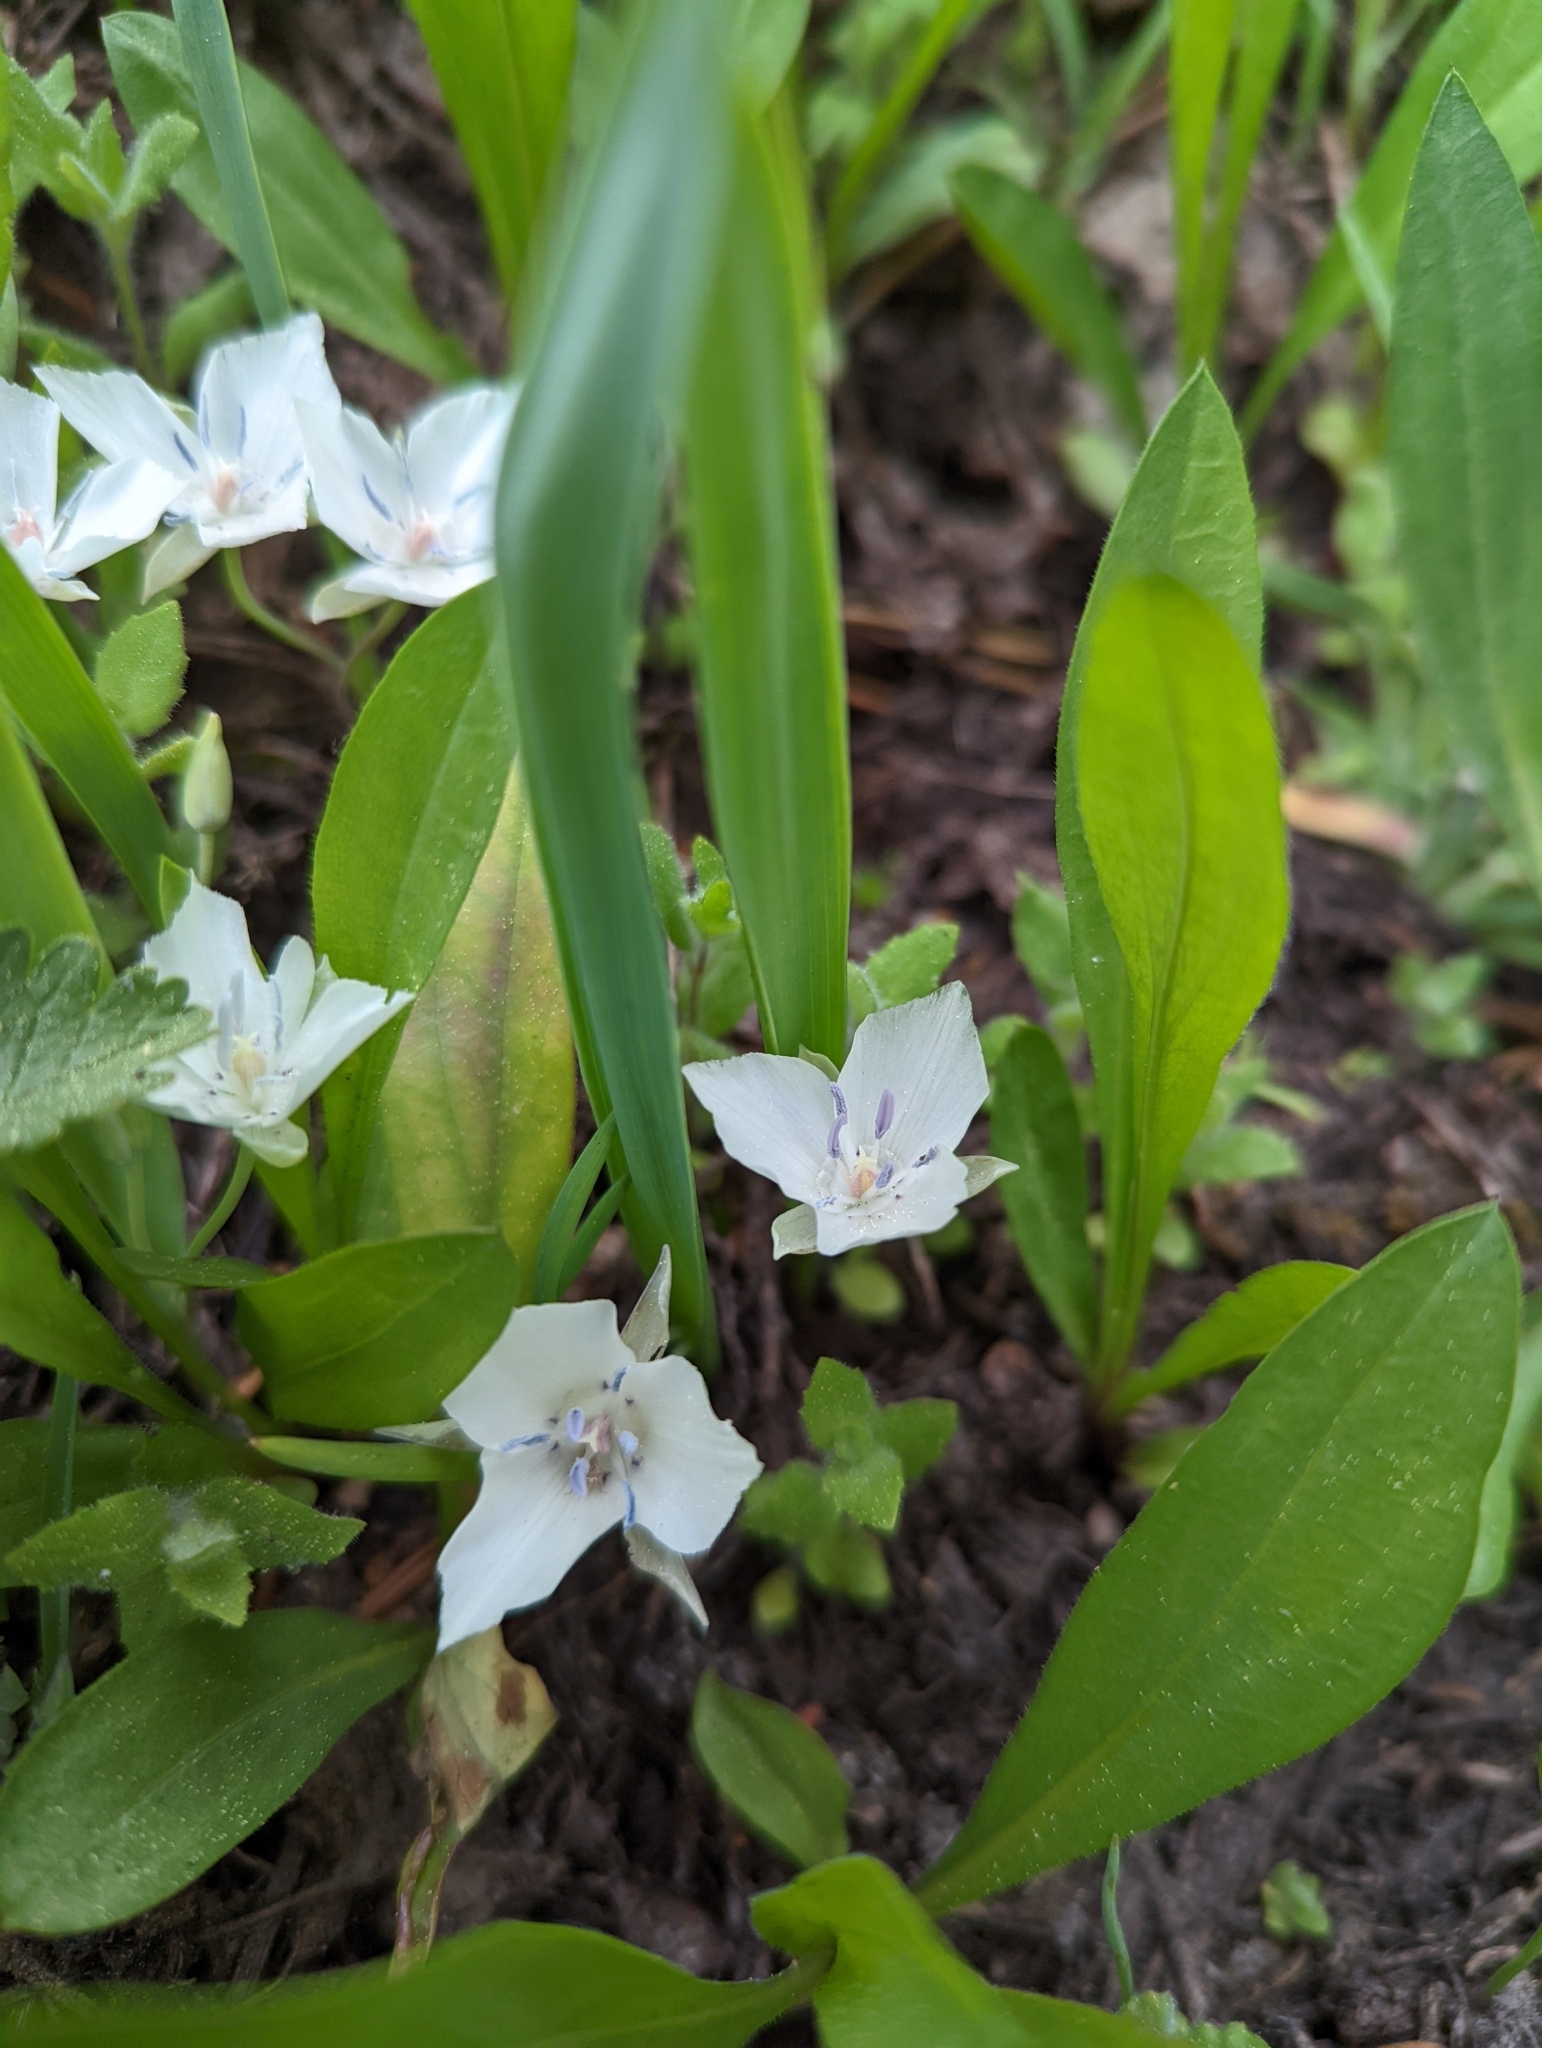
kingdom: Plantae
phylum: Tracheophyta
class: Liliopsida
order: Liliales
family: Liliaceae
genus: Calochortus
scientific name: Calochortus minimus
